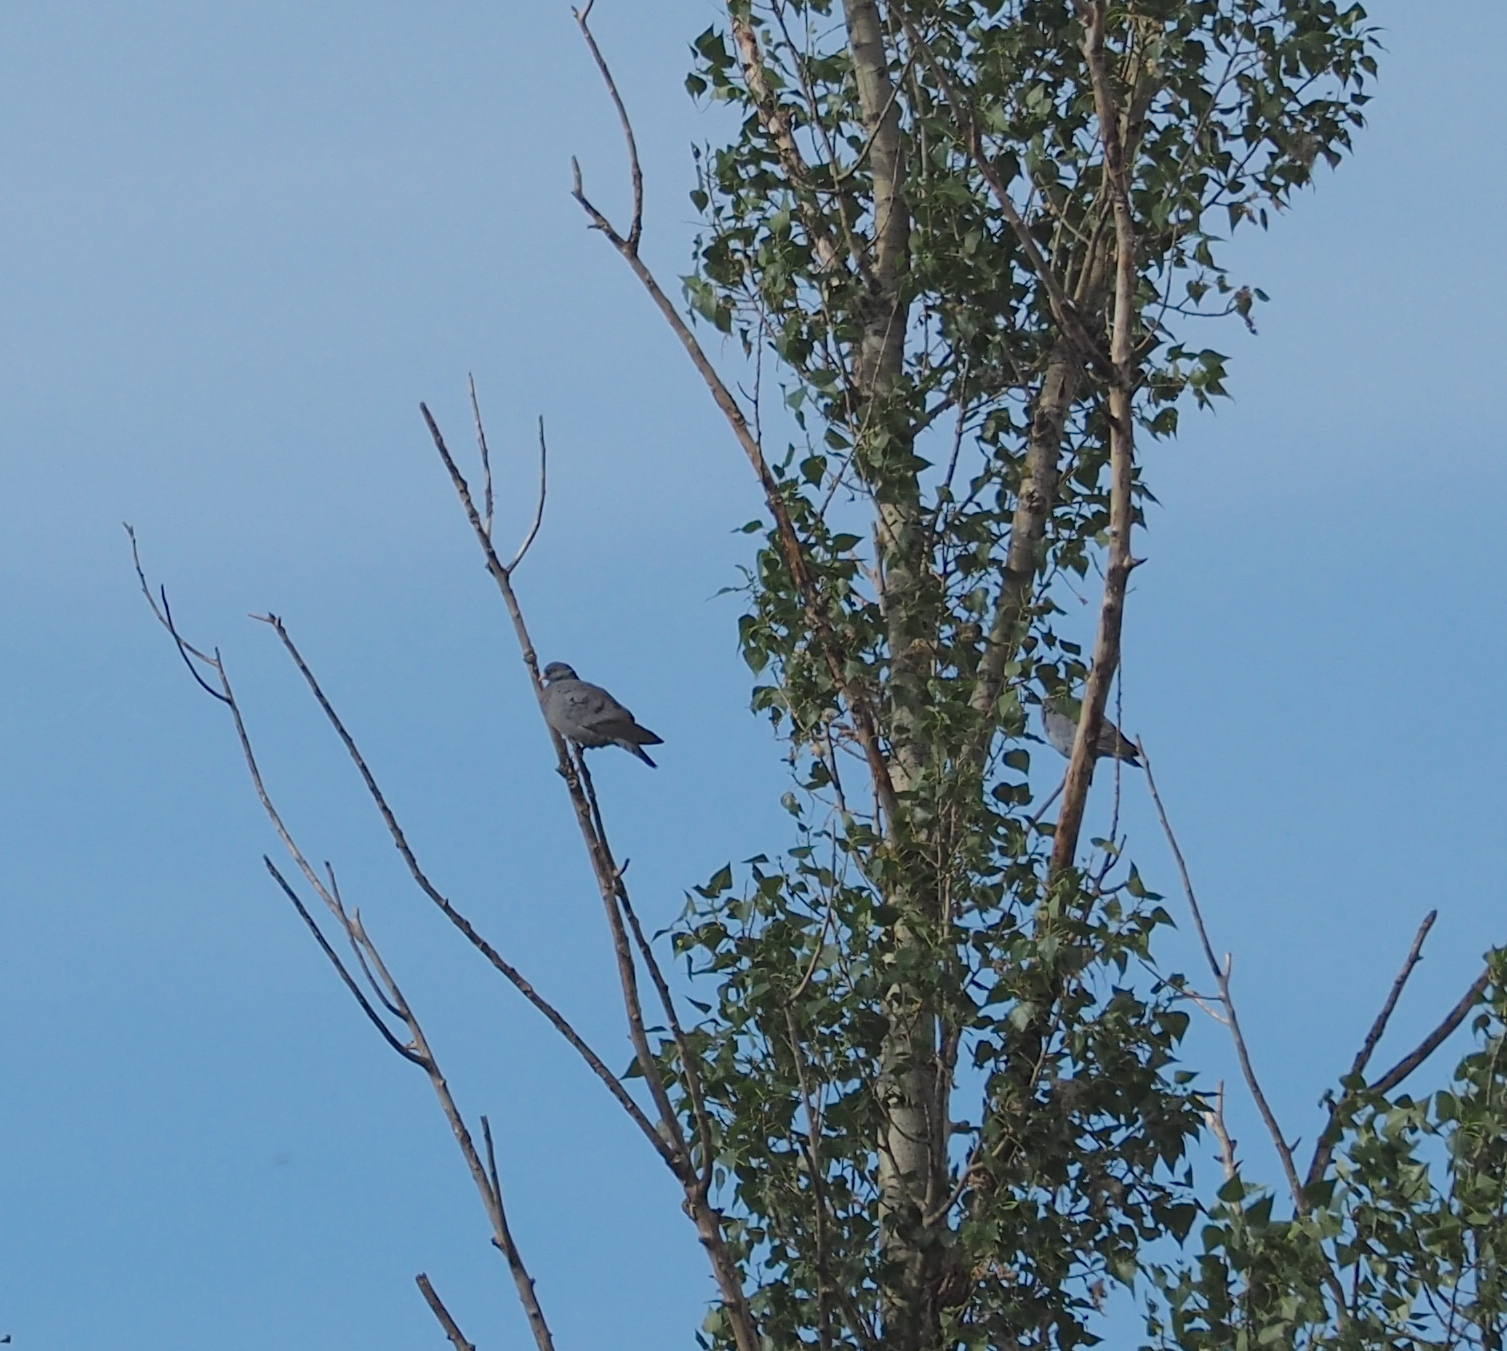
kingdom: Animalia
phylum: Chordata
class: Aves
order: Columbiformes
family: Columbidae
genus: Columba
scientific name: Columba oenas
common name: Stock dove
